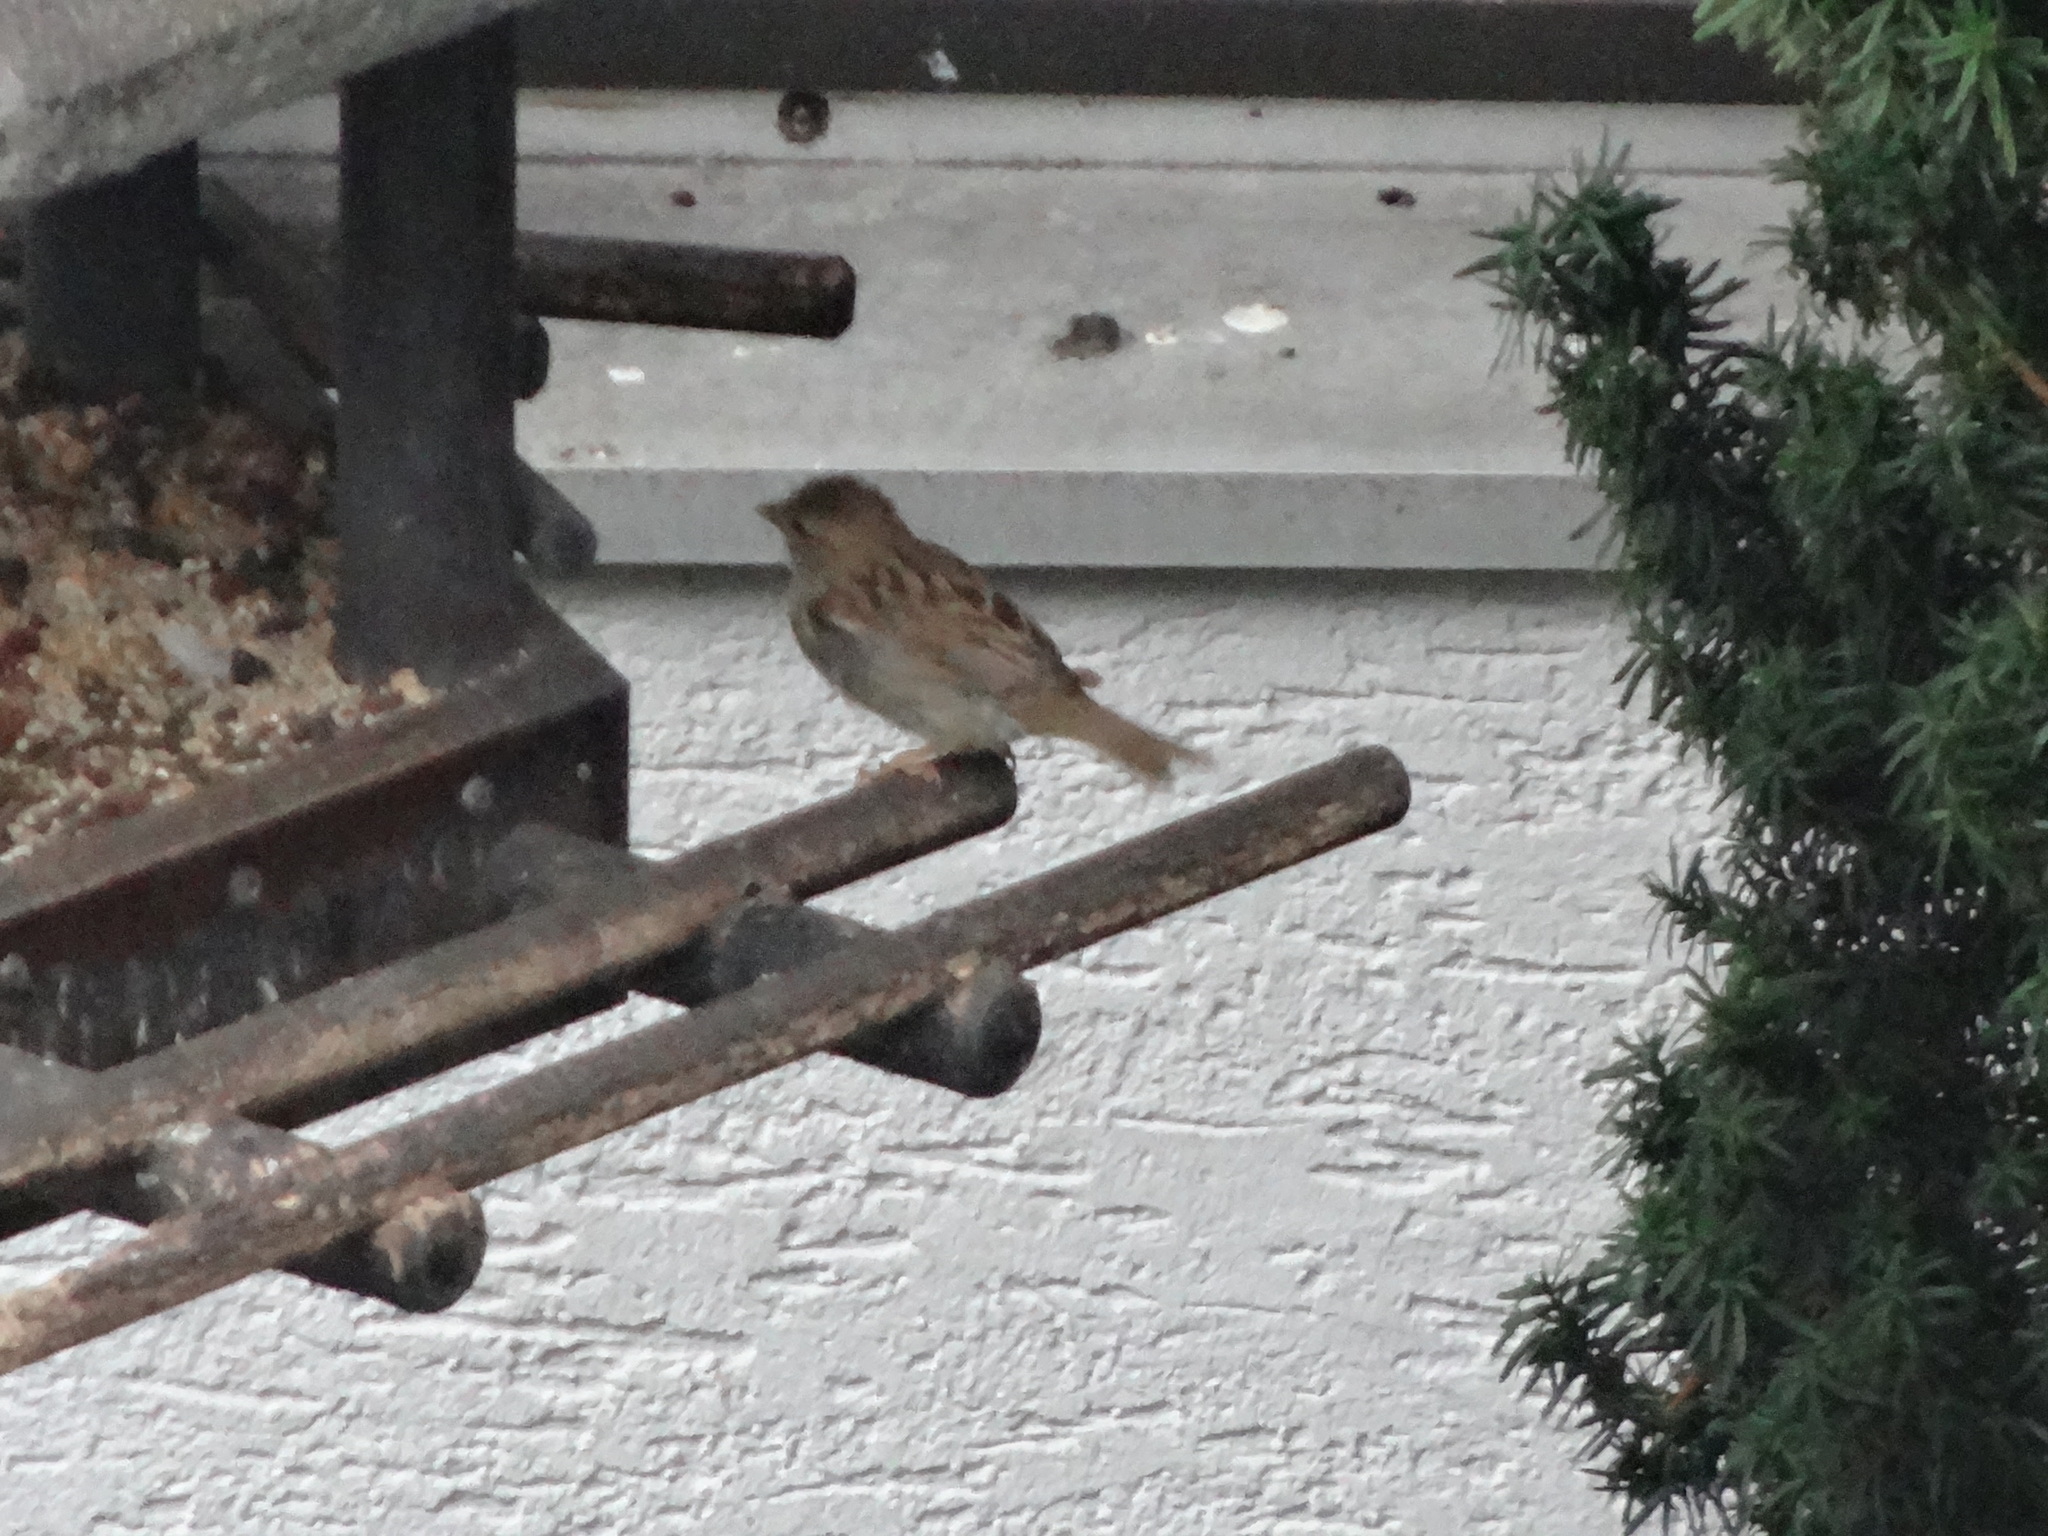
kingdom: Animalia
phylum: Chordata
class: Aves
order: Passeriformes
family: Passeridae
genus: Passer
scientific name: Passer domesticus
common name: House sparrow
